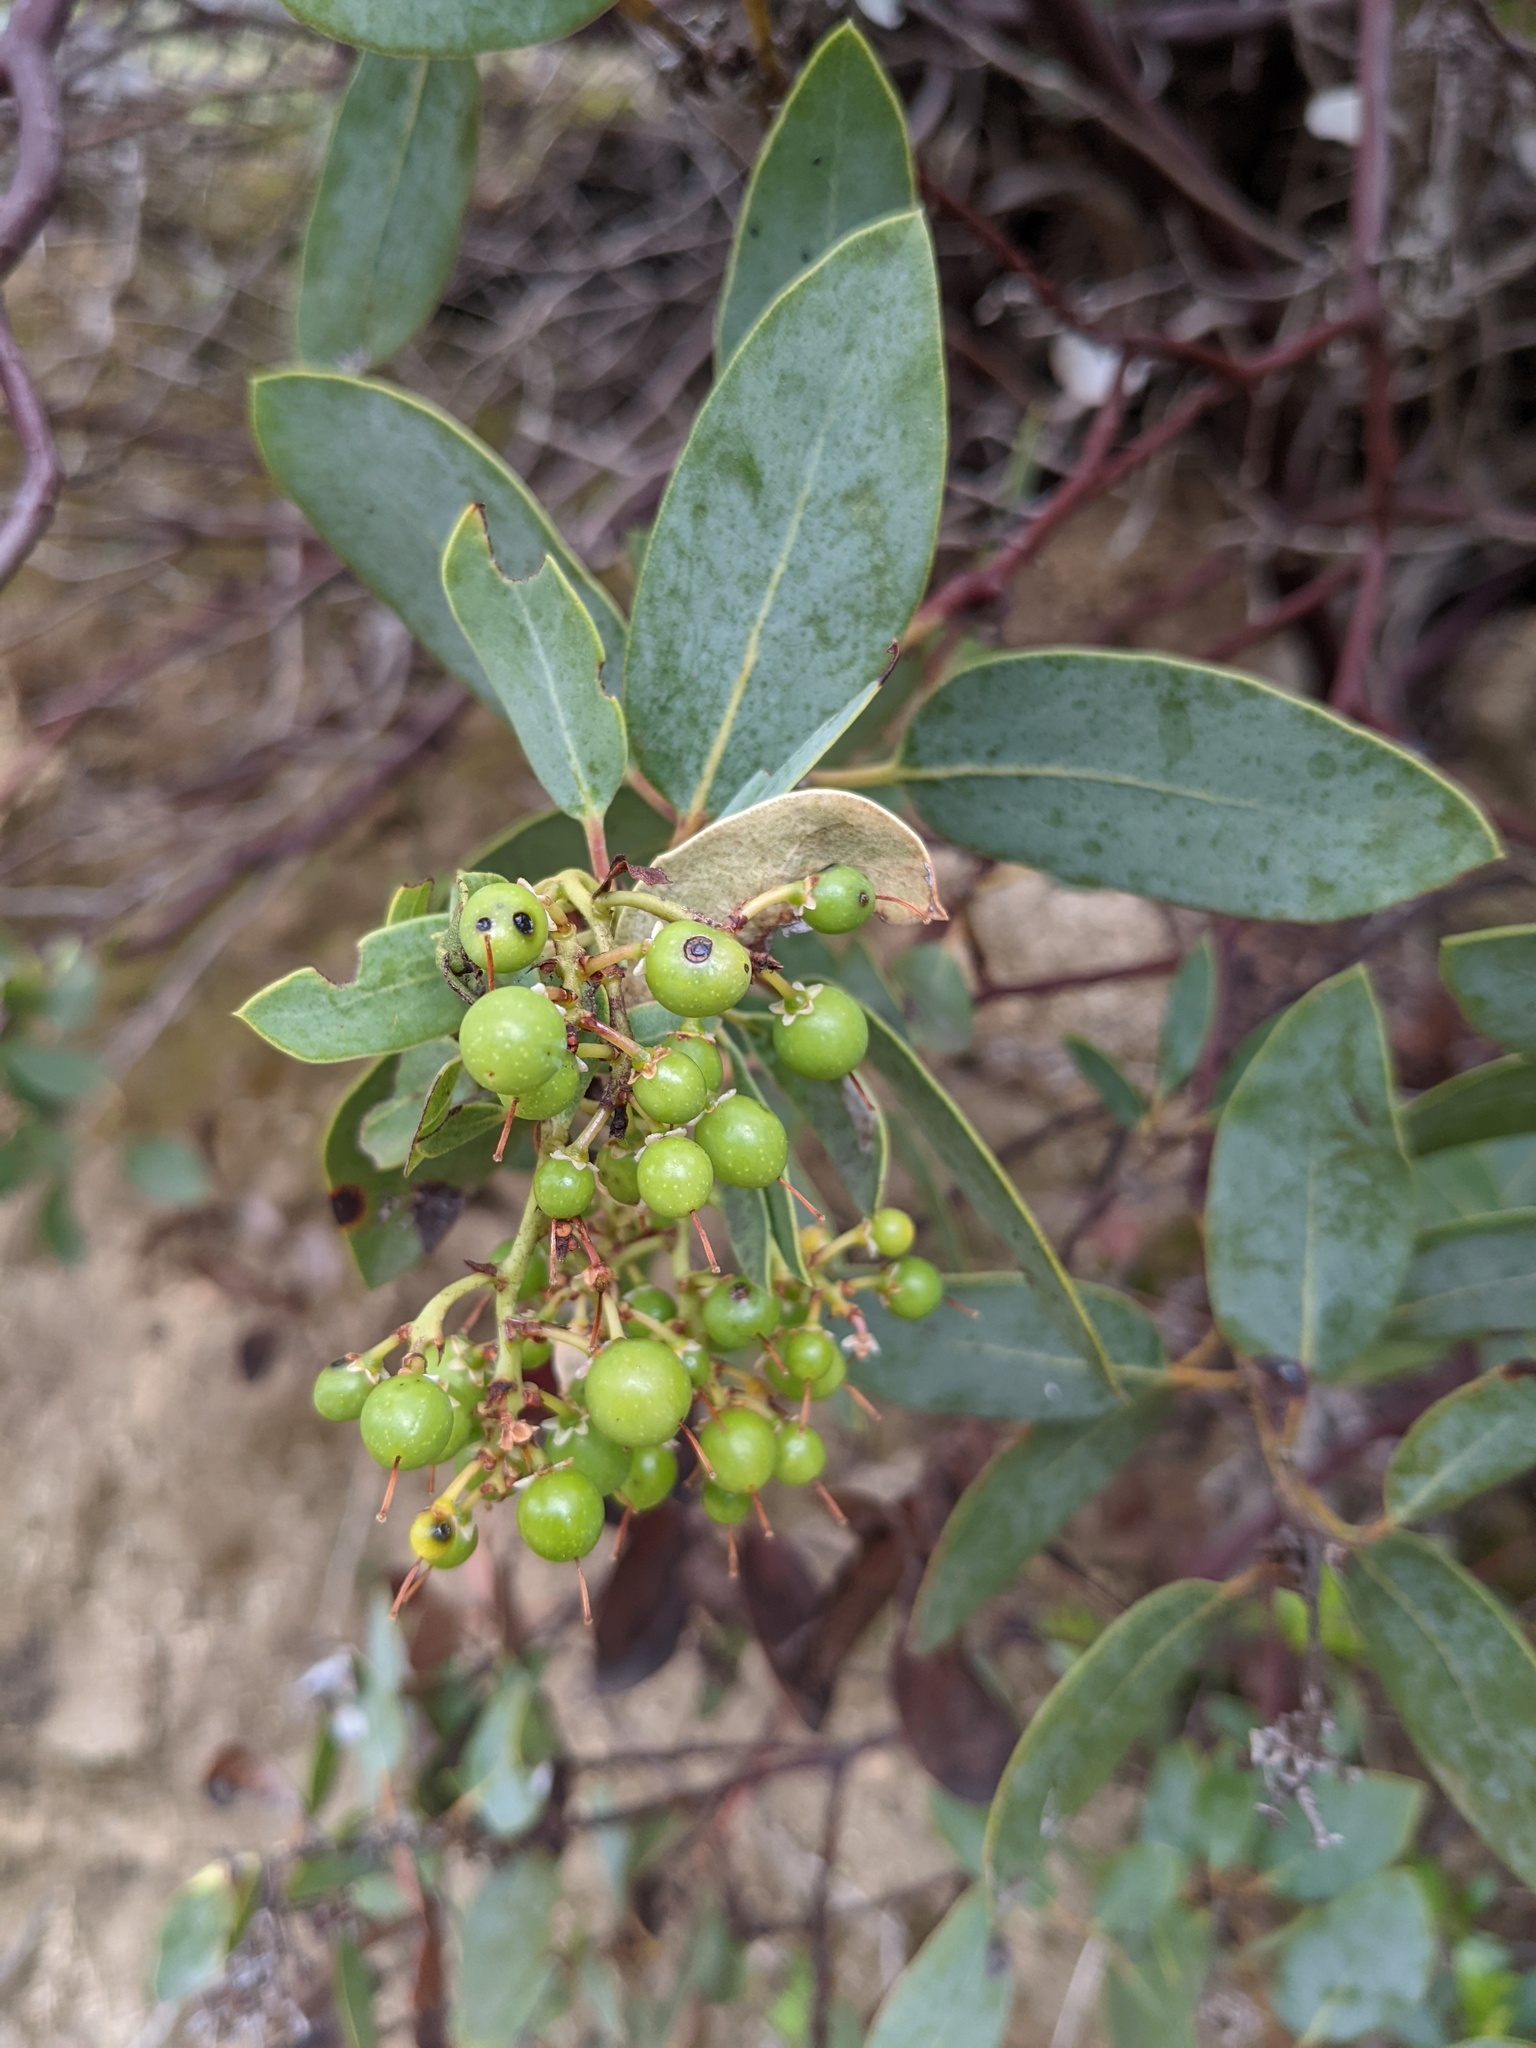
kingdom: Plantae
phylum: Tracheophyta
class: Magnoliopsida
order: Ericales
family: Ericaceae
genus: Arctostaphylos
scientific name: Arctostaphylos rainbowensis
